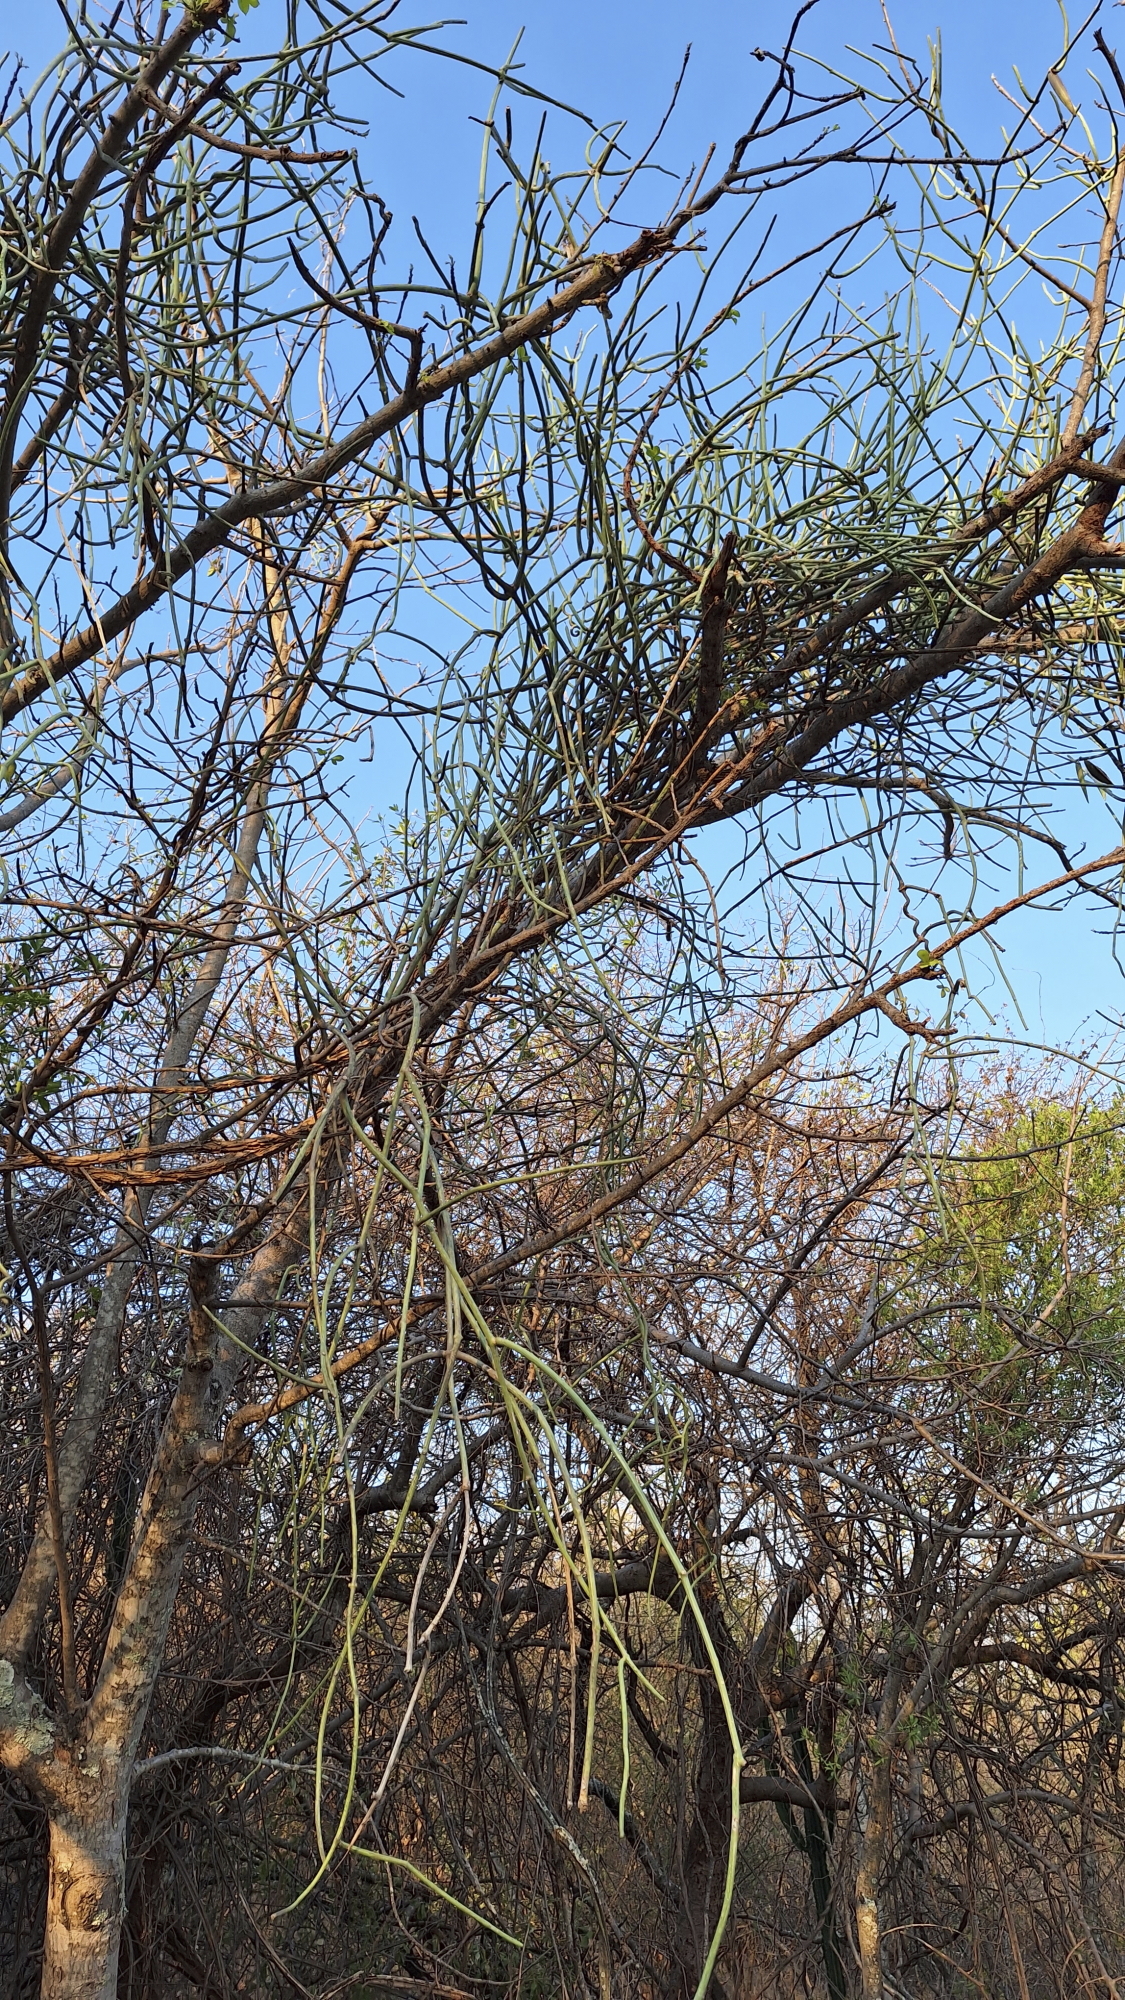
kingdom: Plantae
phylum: Tracheophyta
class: Magnoliopsida
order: Gentianales
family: Apocynaceae
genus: Cynanchum
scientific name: Cynanchum viminale
